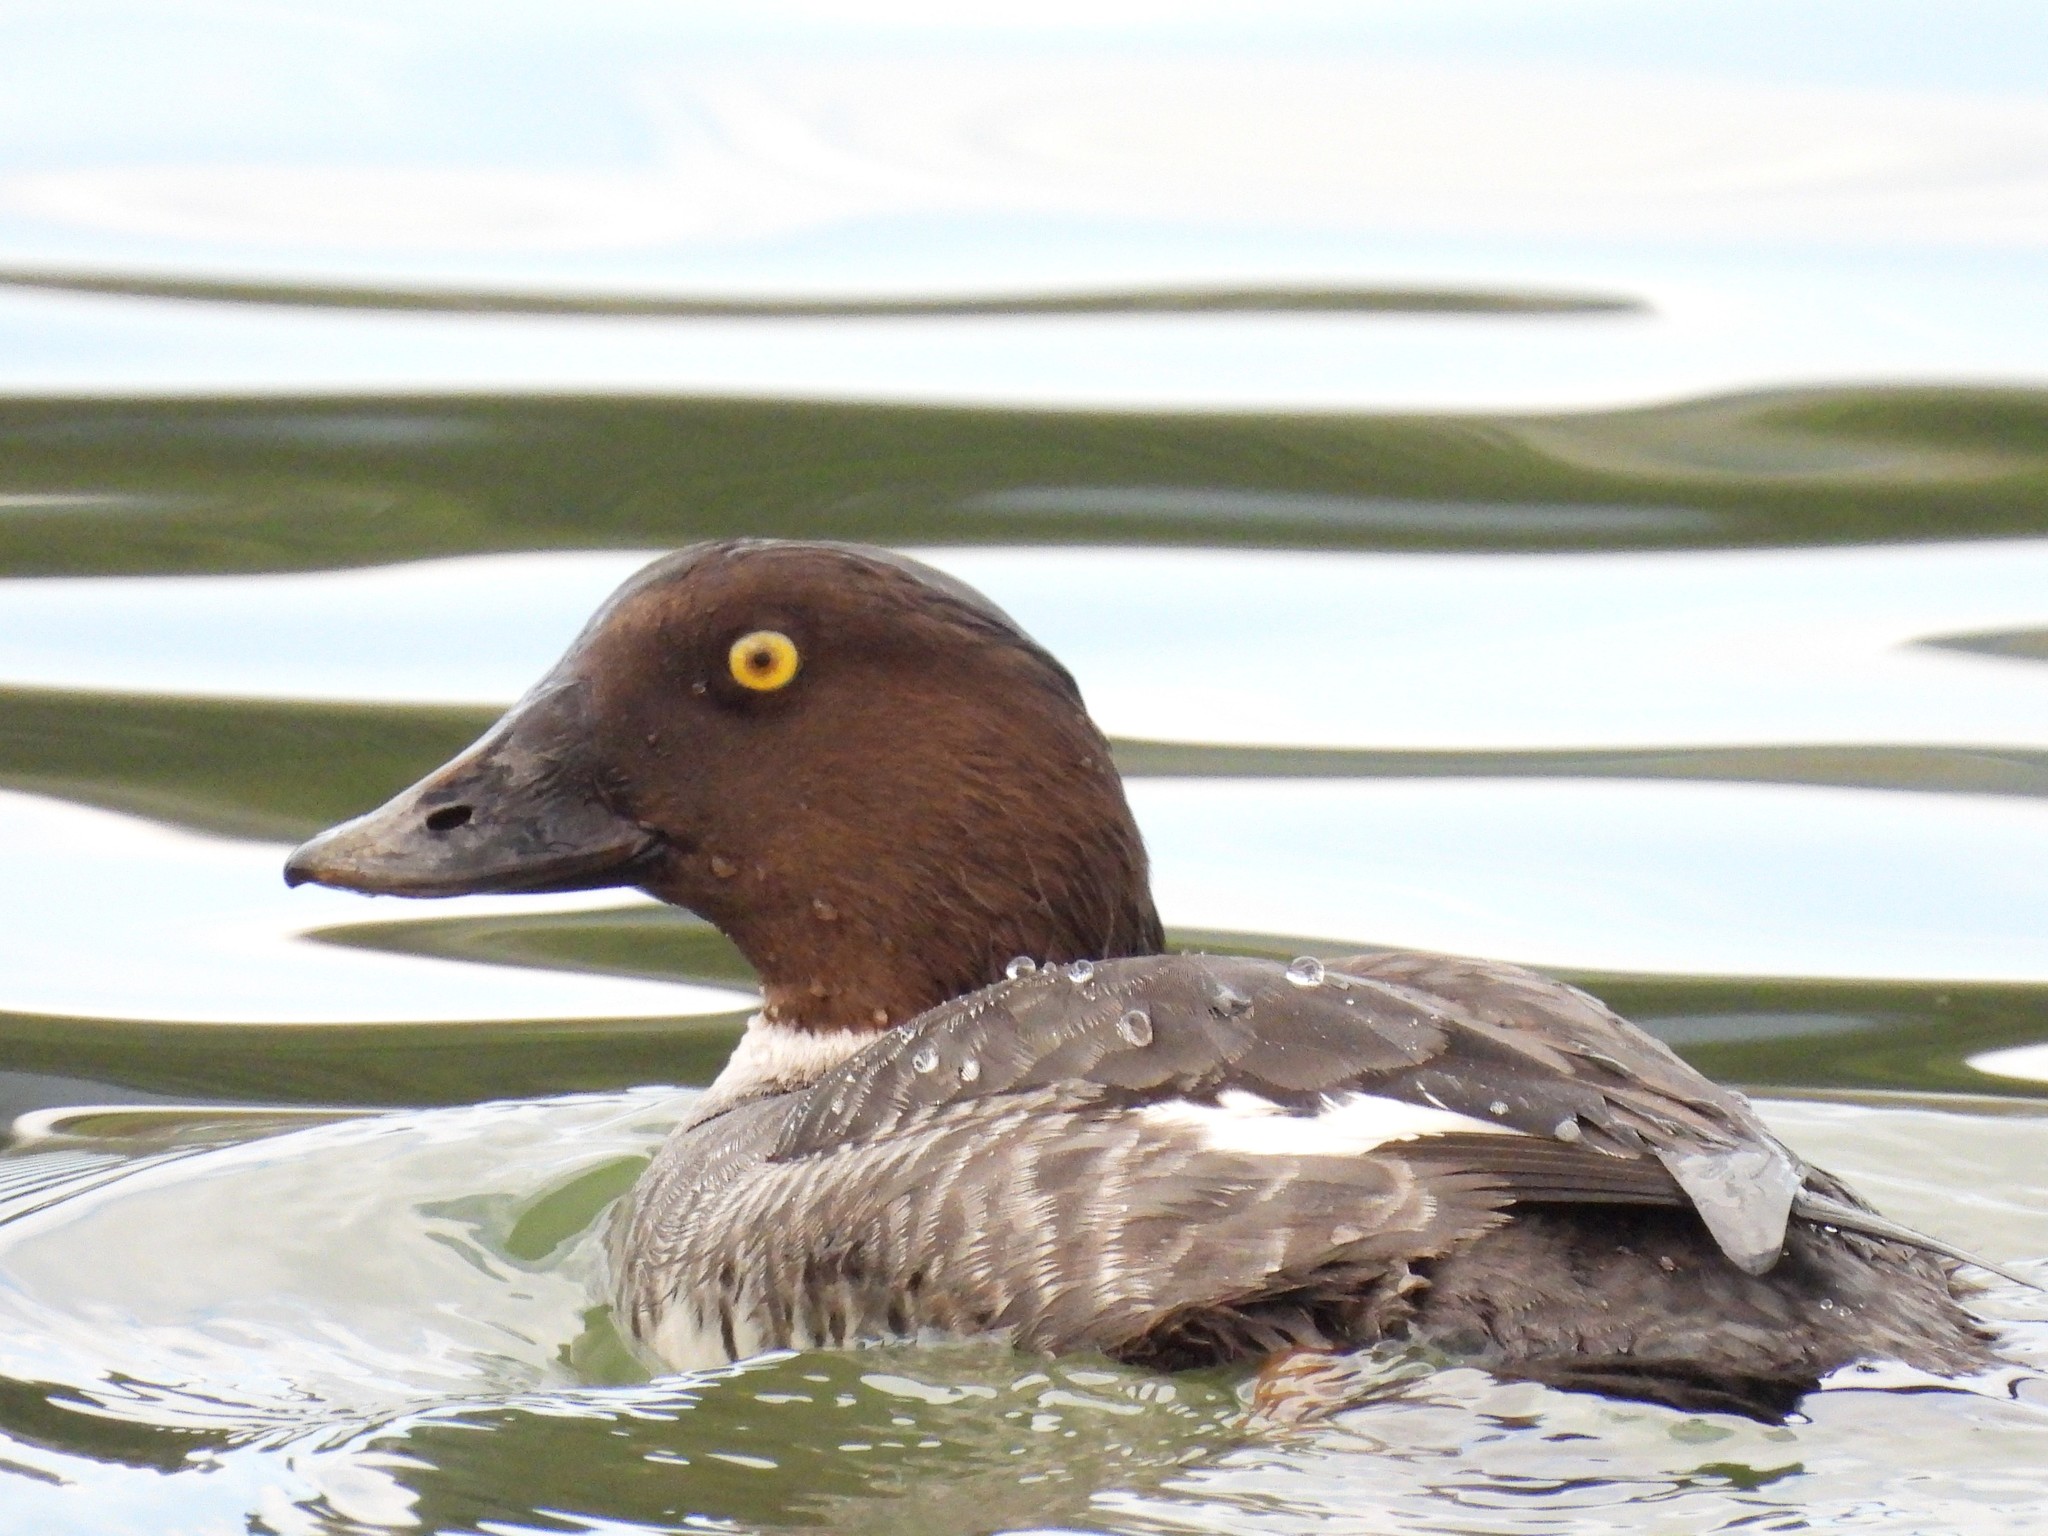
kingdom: Animalia
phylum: Chordata
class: Aves
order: Anseriformes
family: Anatidae
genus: Bucephala
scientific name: Bucephala clangula
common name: Common goldeneye
